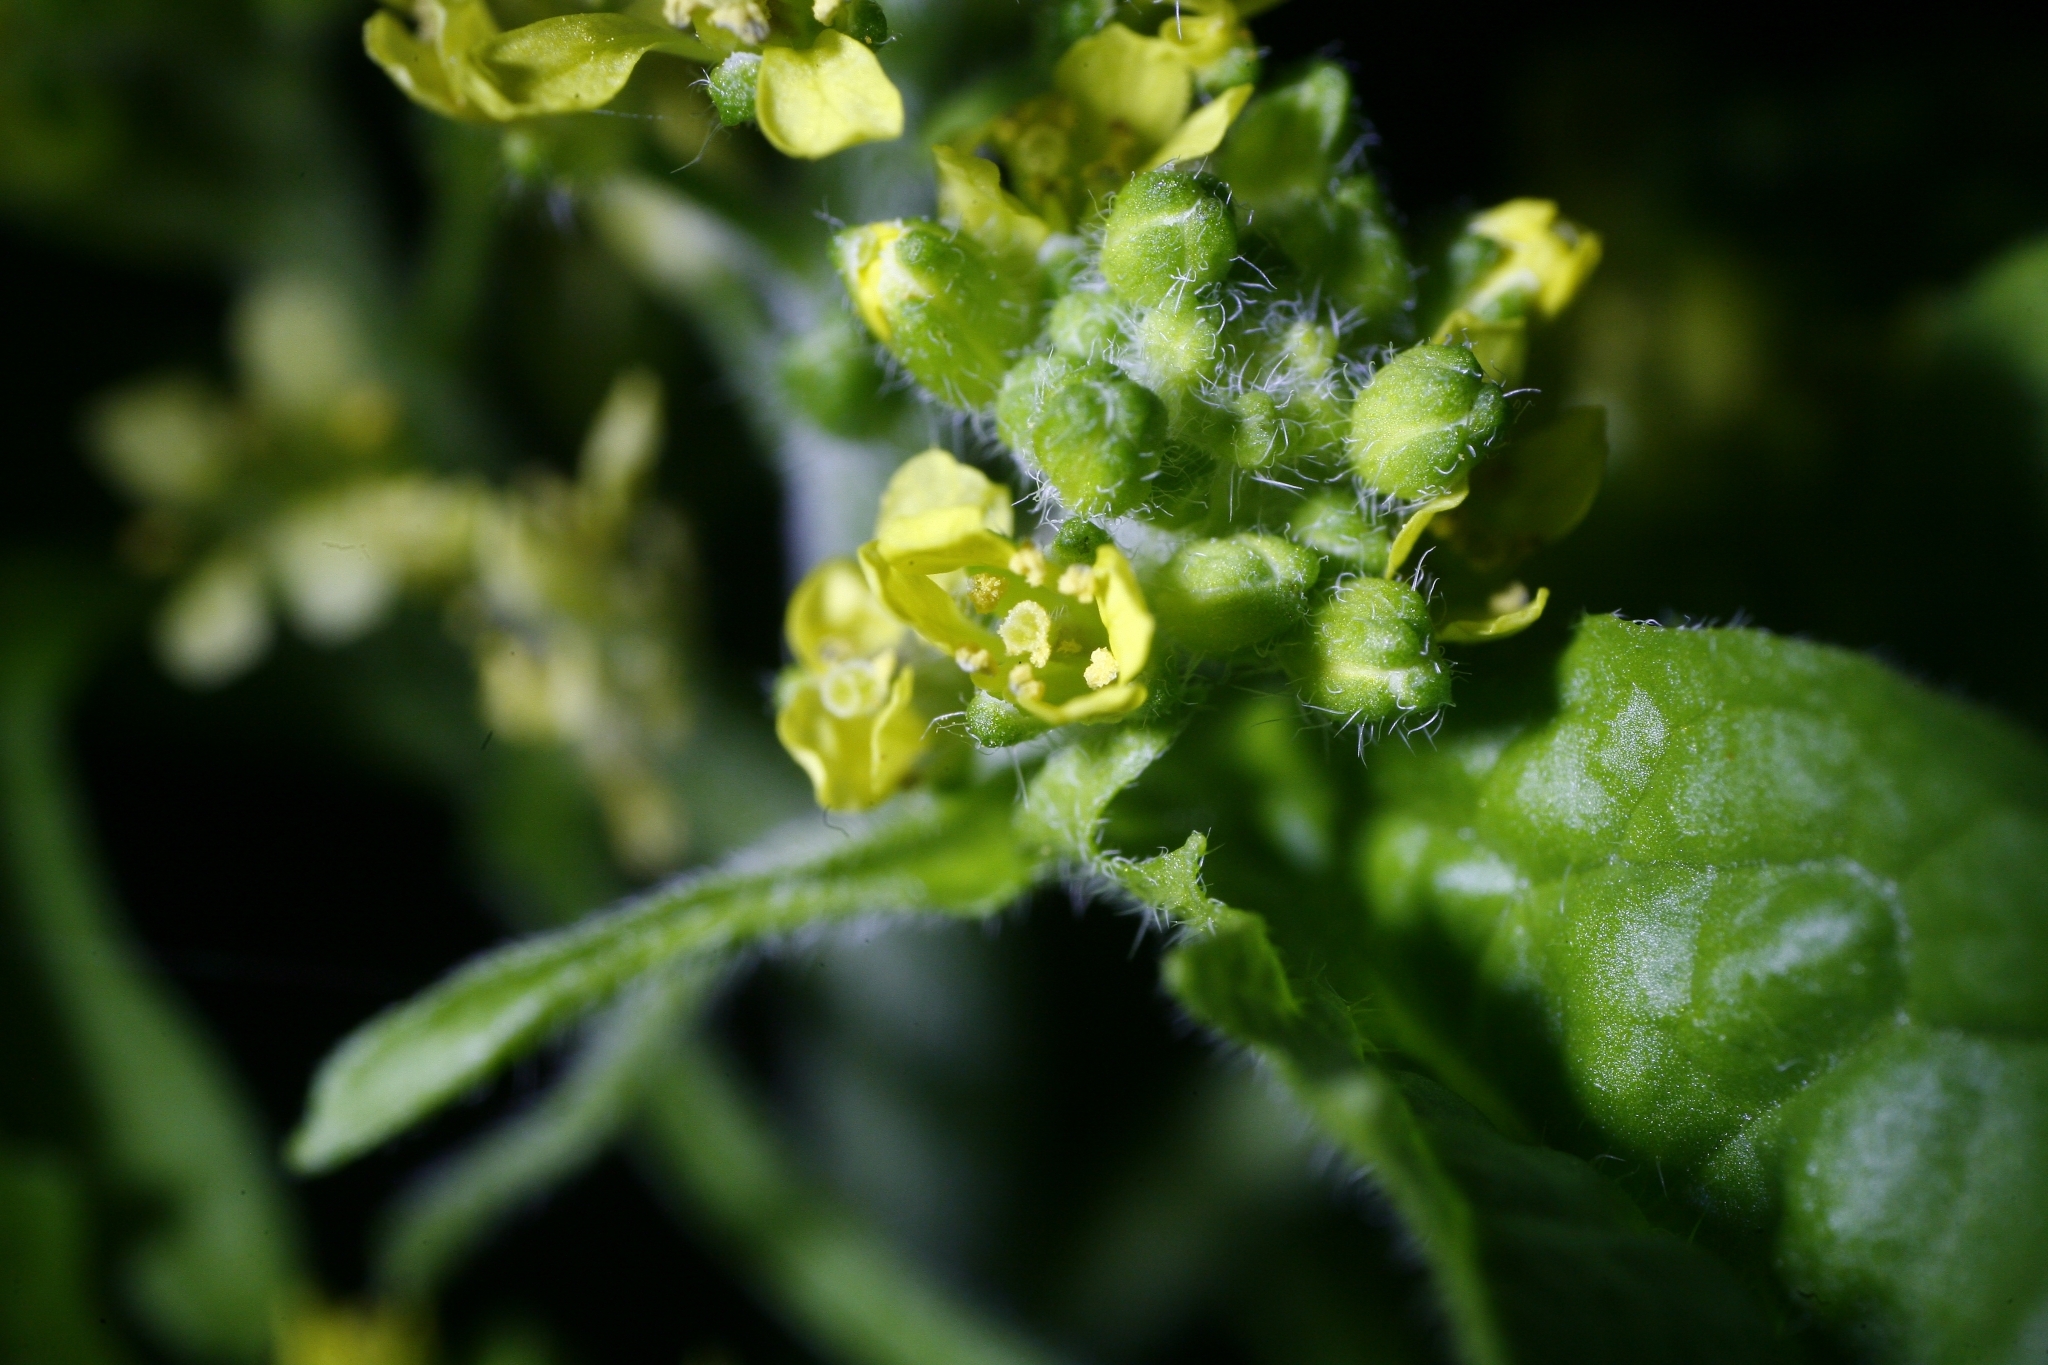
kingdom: Plantae
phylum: Tracheophyta
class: Magnoliopsida
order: Brassicales
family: Brassicaceae
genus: Sisymbrium
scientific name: Sisymbrium officinale
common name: Hedge mustard
